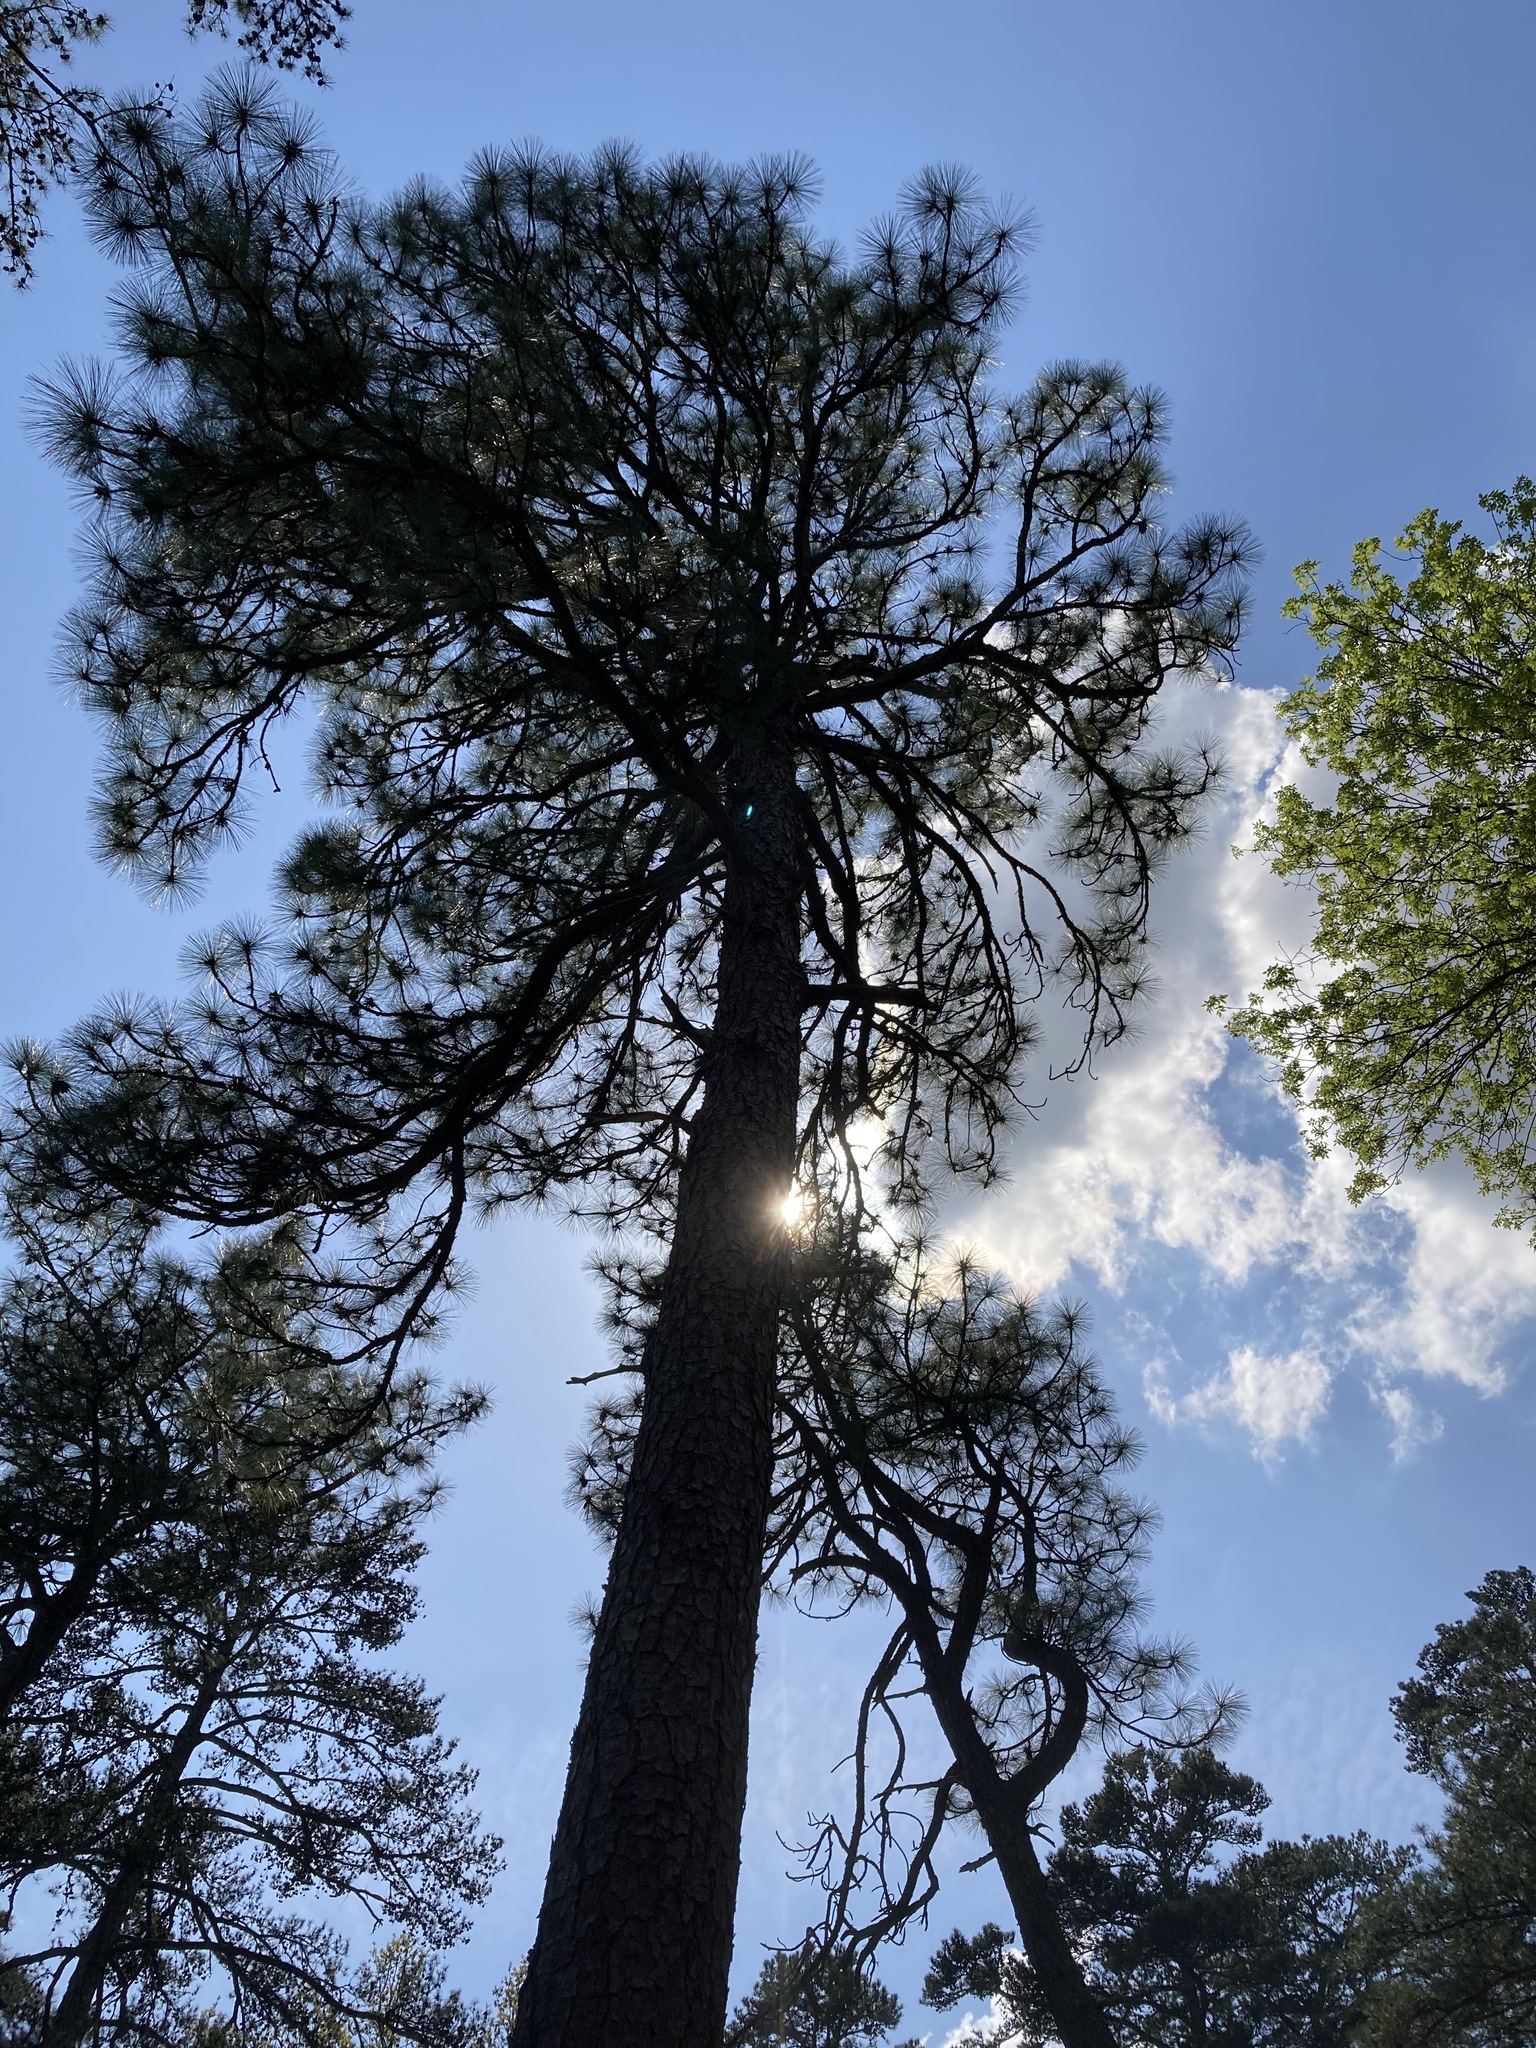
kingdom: Plantae
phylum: Tracheophyta
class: Pinopsida
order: Pinales
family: Pinaceae
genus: Pinus
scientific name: Pinus palustris
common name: Longleaf pine
